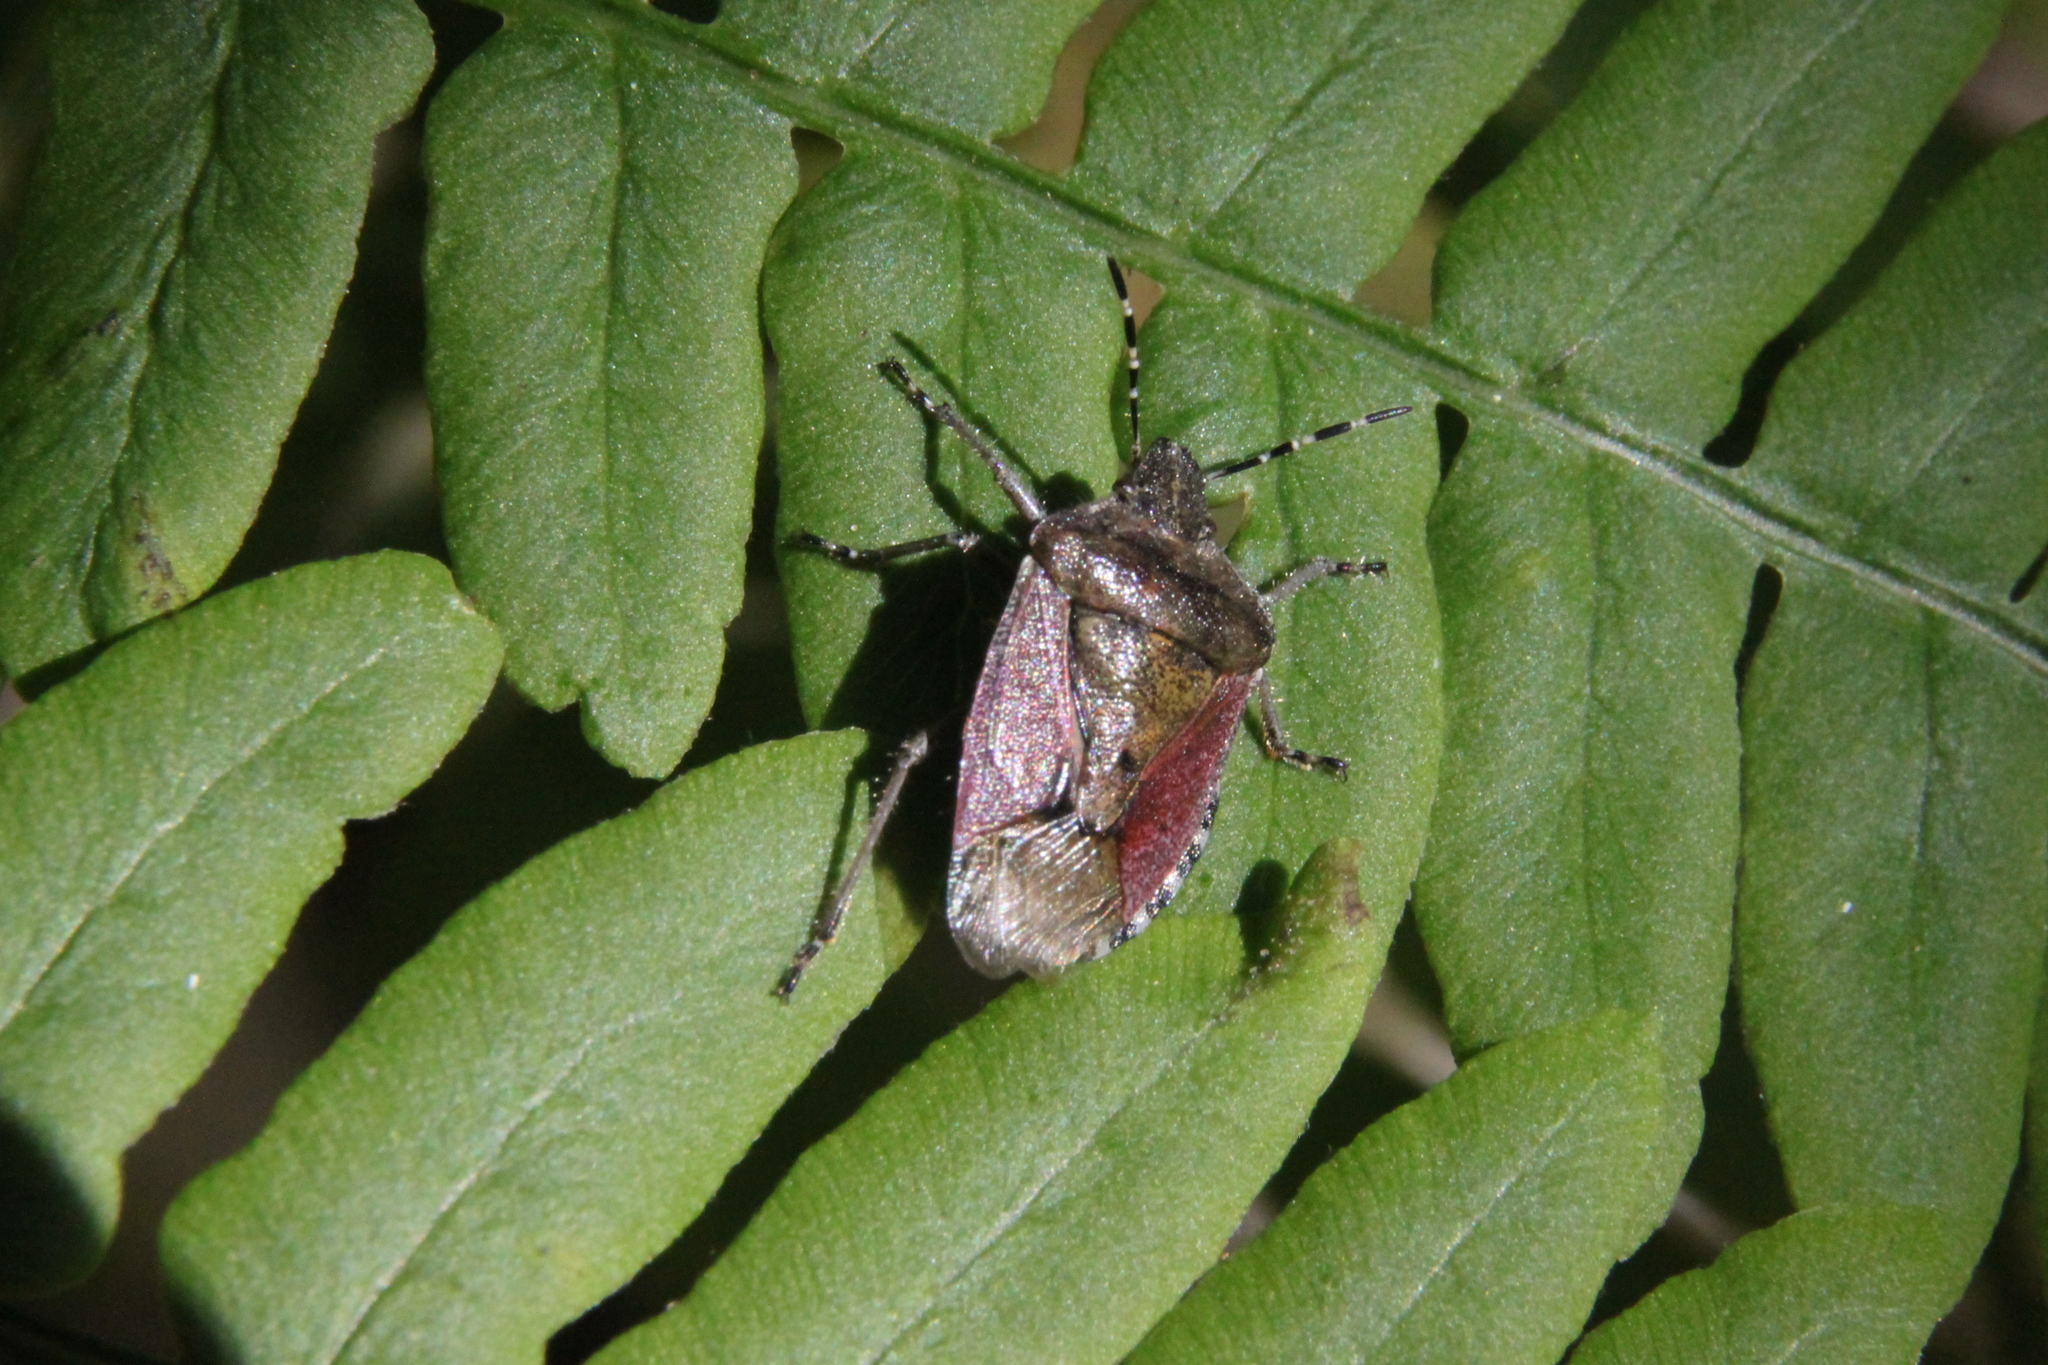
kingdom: Animalia
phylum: Arthropoda
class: Insecta
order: Hemiptera
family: Pentatomidae
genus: Dolycoris
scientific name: Dolycoris baccarum
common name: Sloe bug
